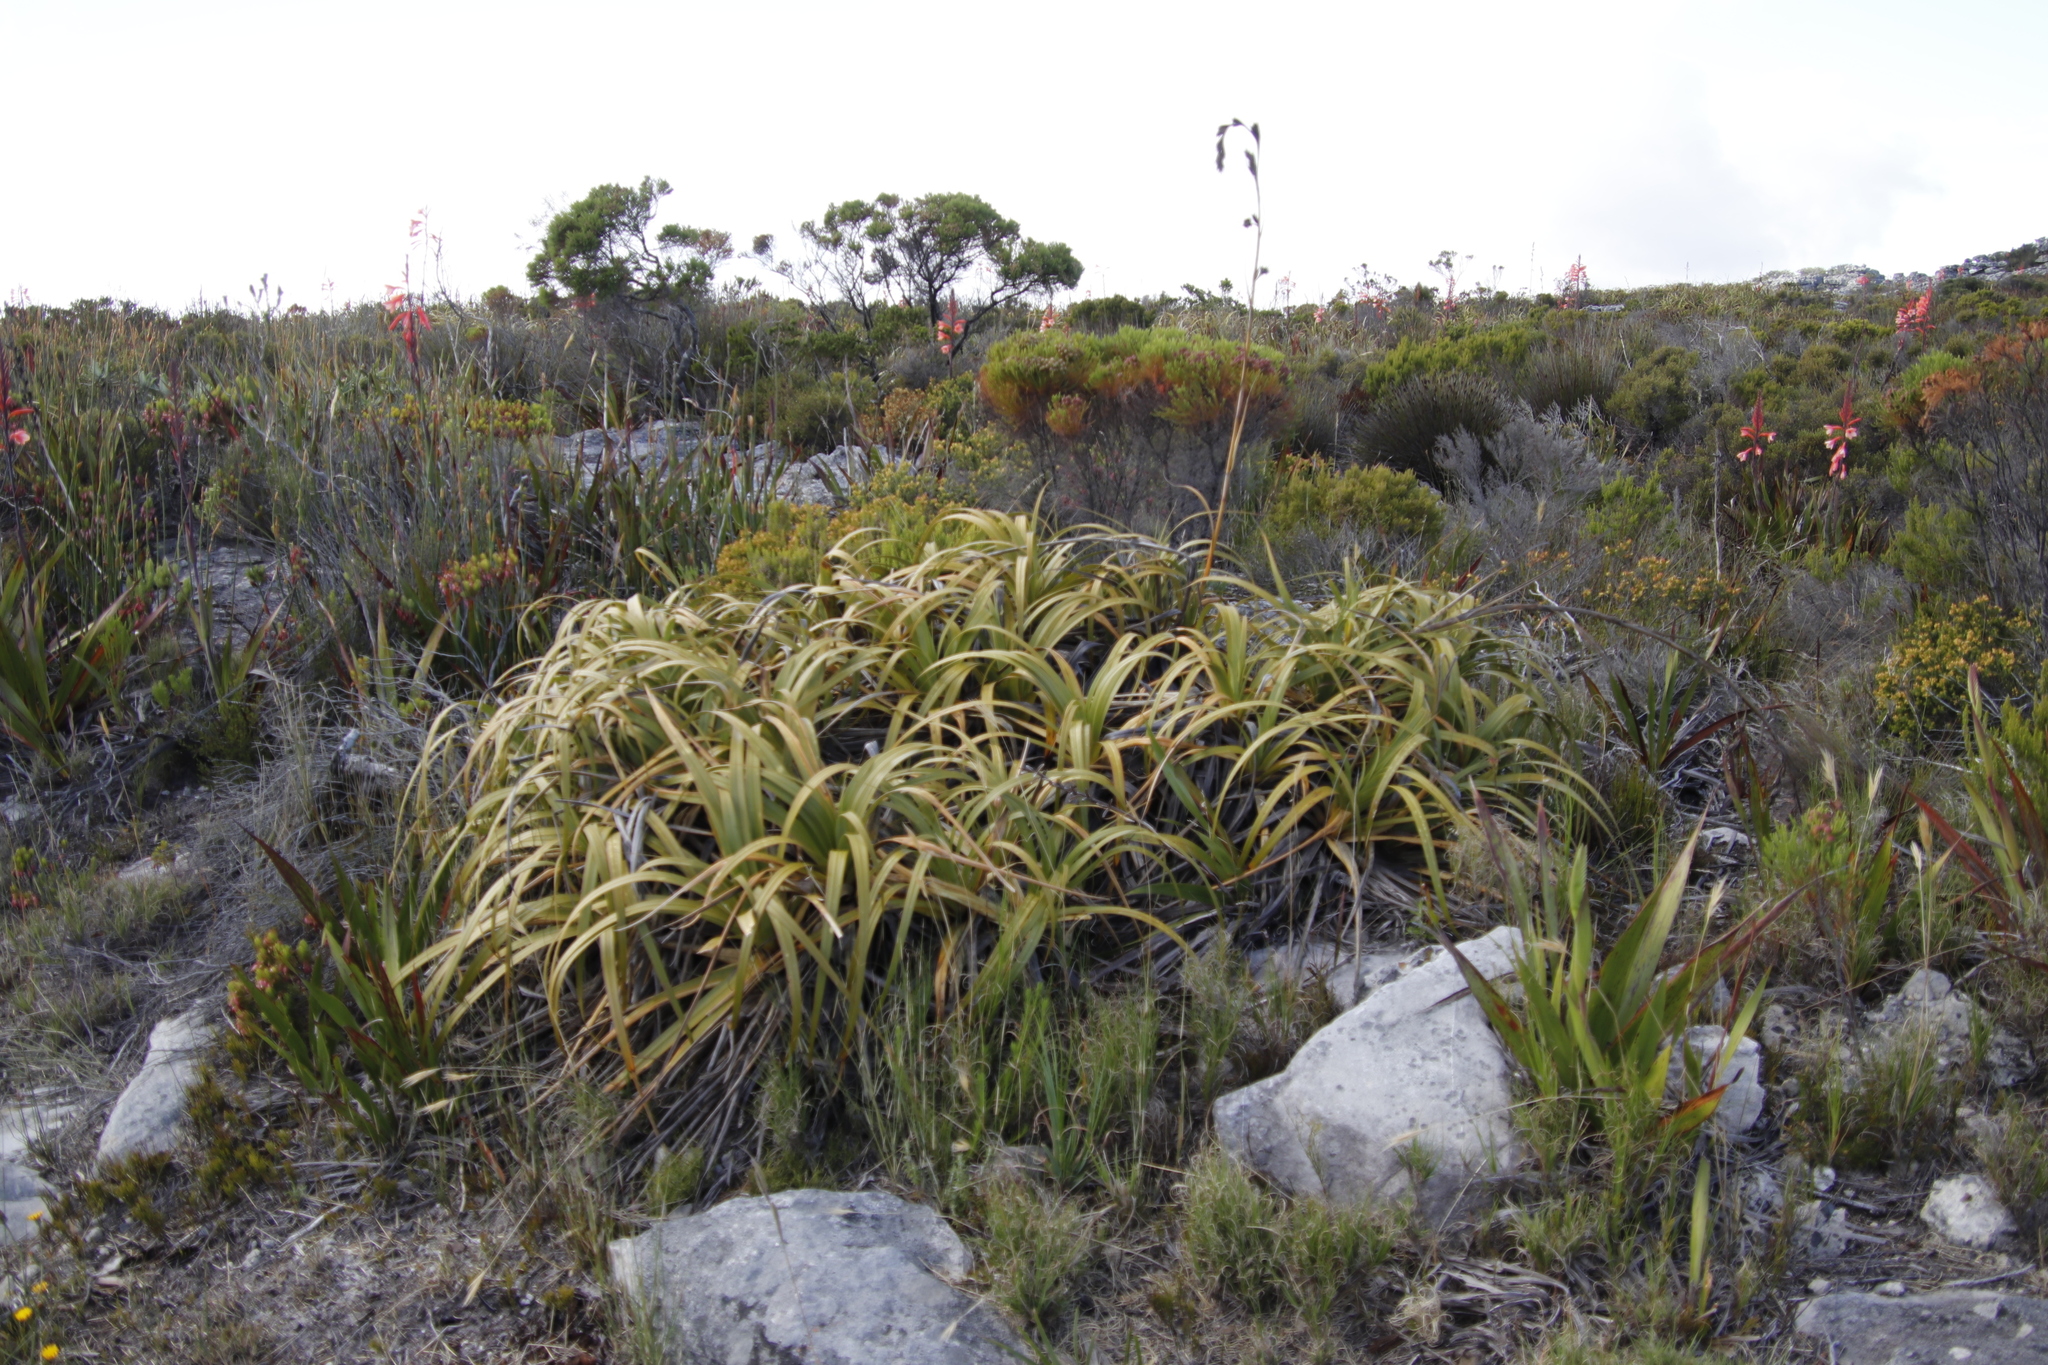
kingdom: Plantae
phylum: Tracheophyta
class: Liliopsida
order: Poales
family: Cyperaceae
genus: Tetraria
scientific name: Tetraria thermalis
